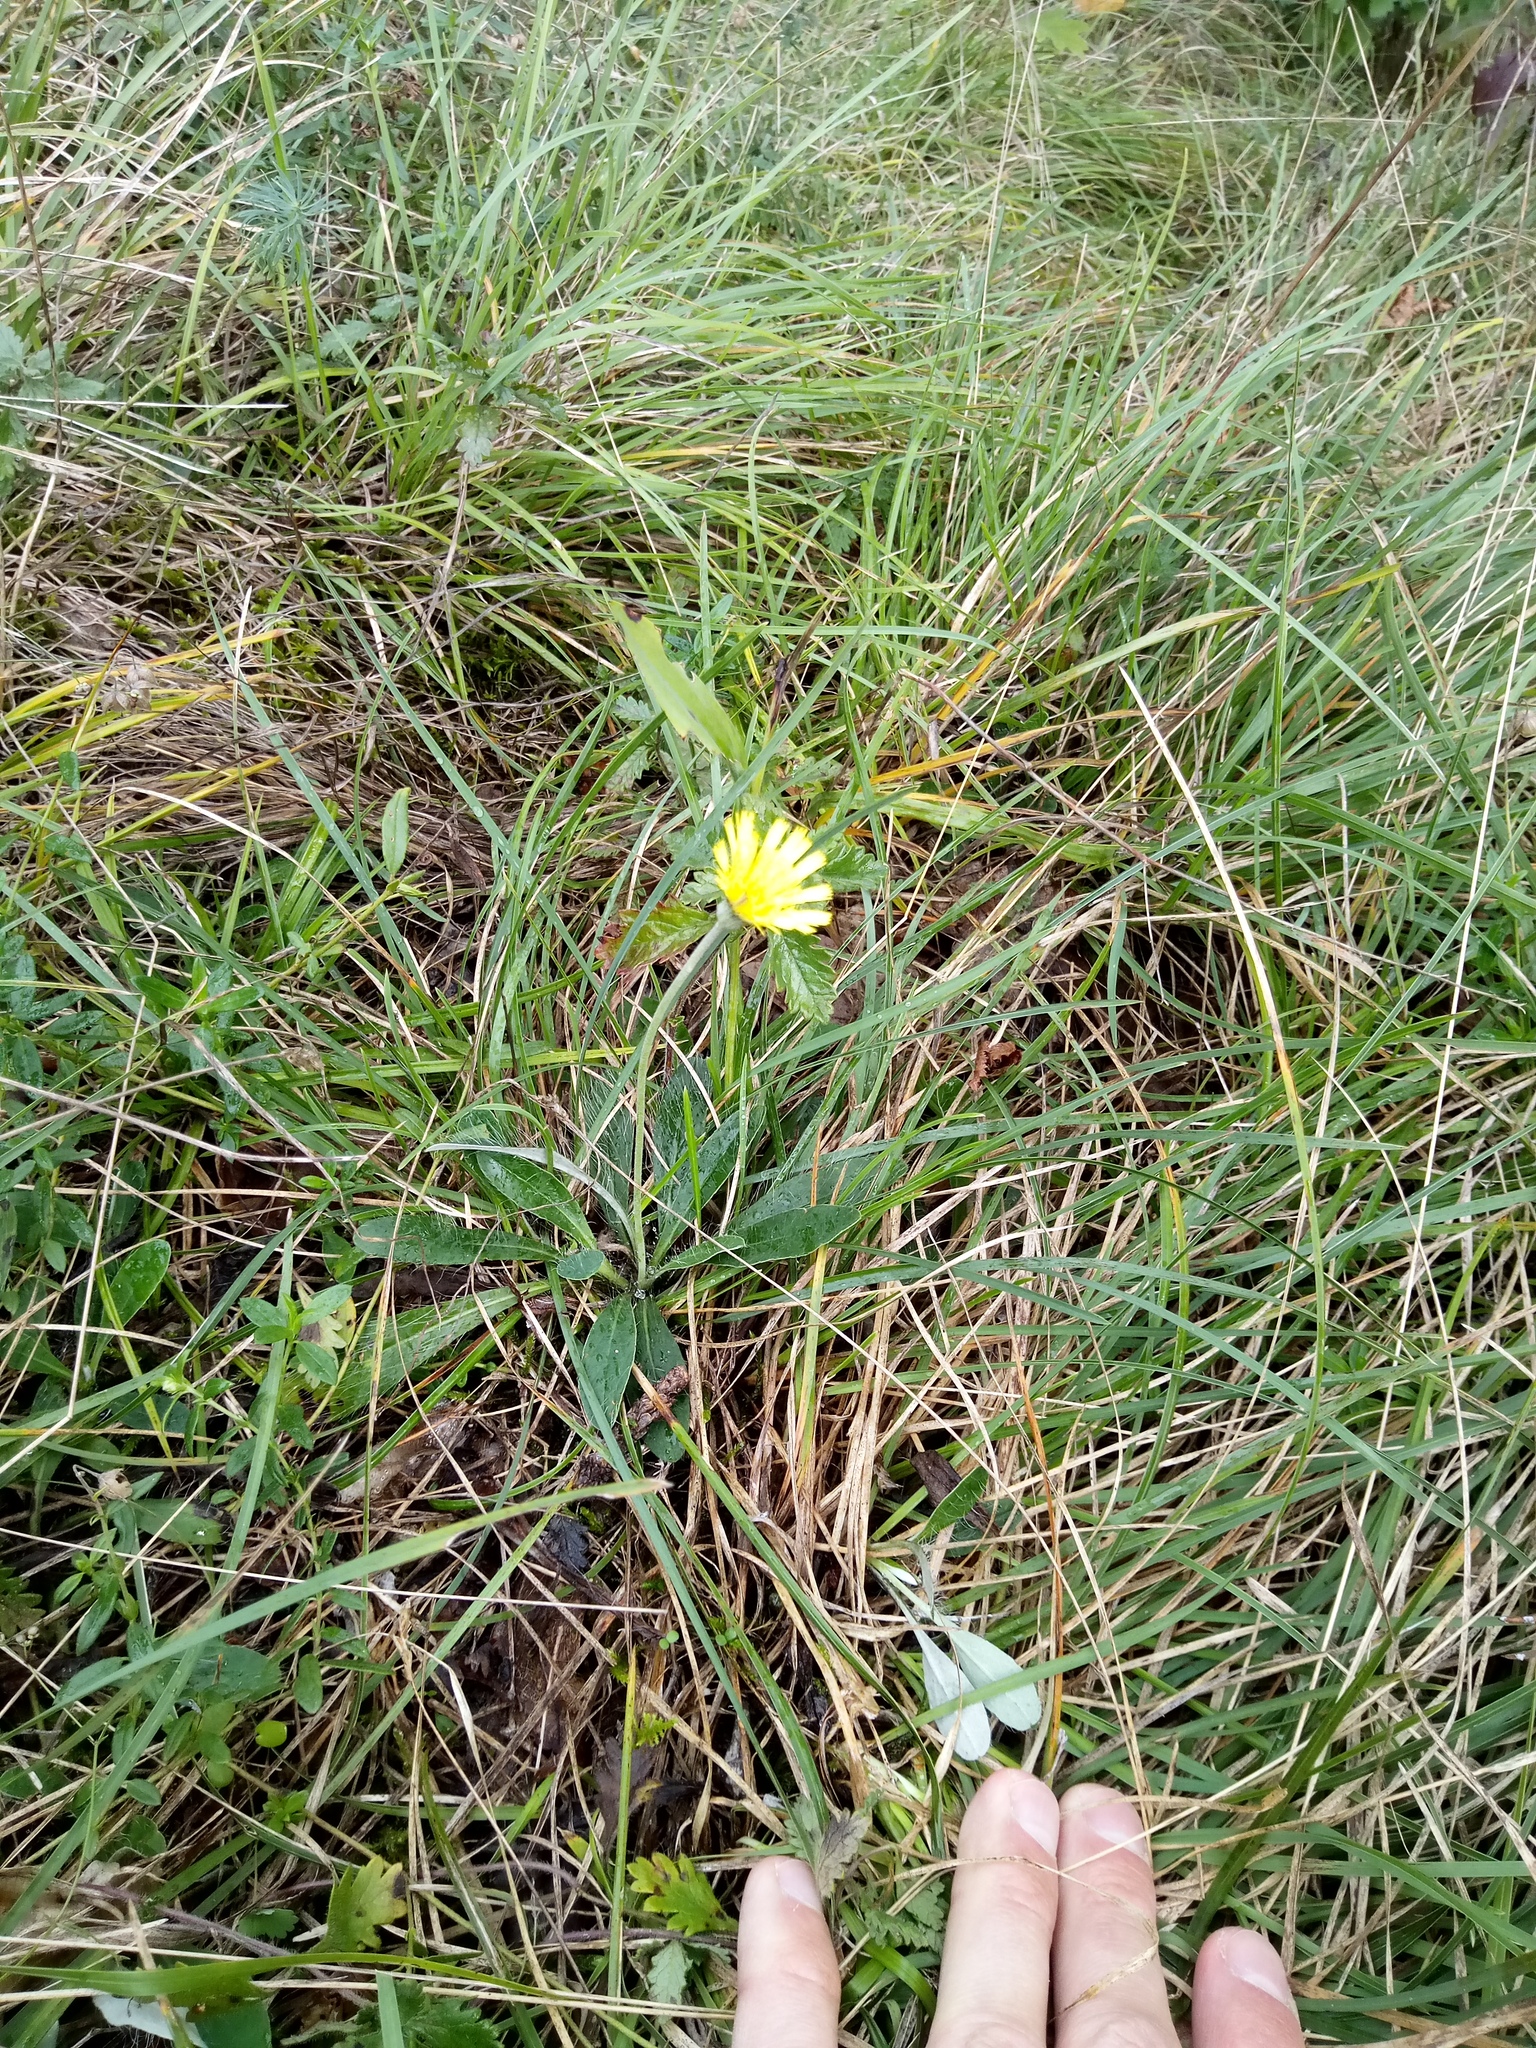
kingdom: Plantae
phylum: Tracheophyta
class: Magnoliopsida
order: Asterales
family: Asteraceae
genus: Pilosella
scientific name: Pilosella officinarum
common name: Mouse-ear hawkweed
